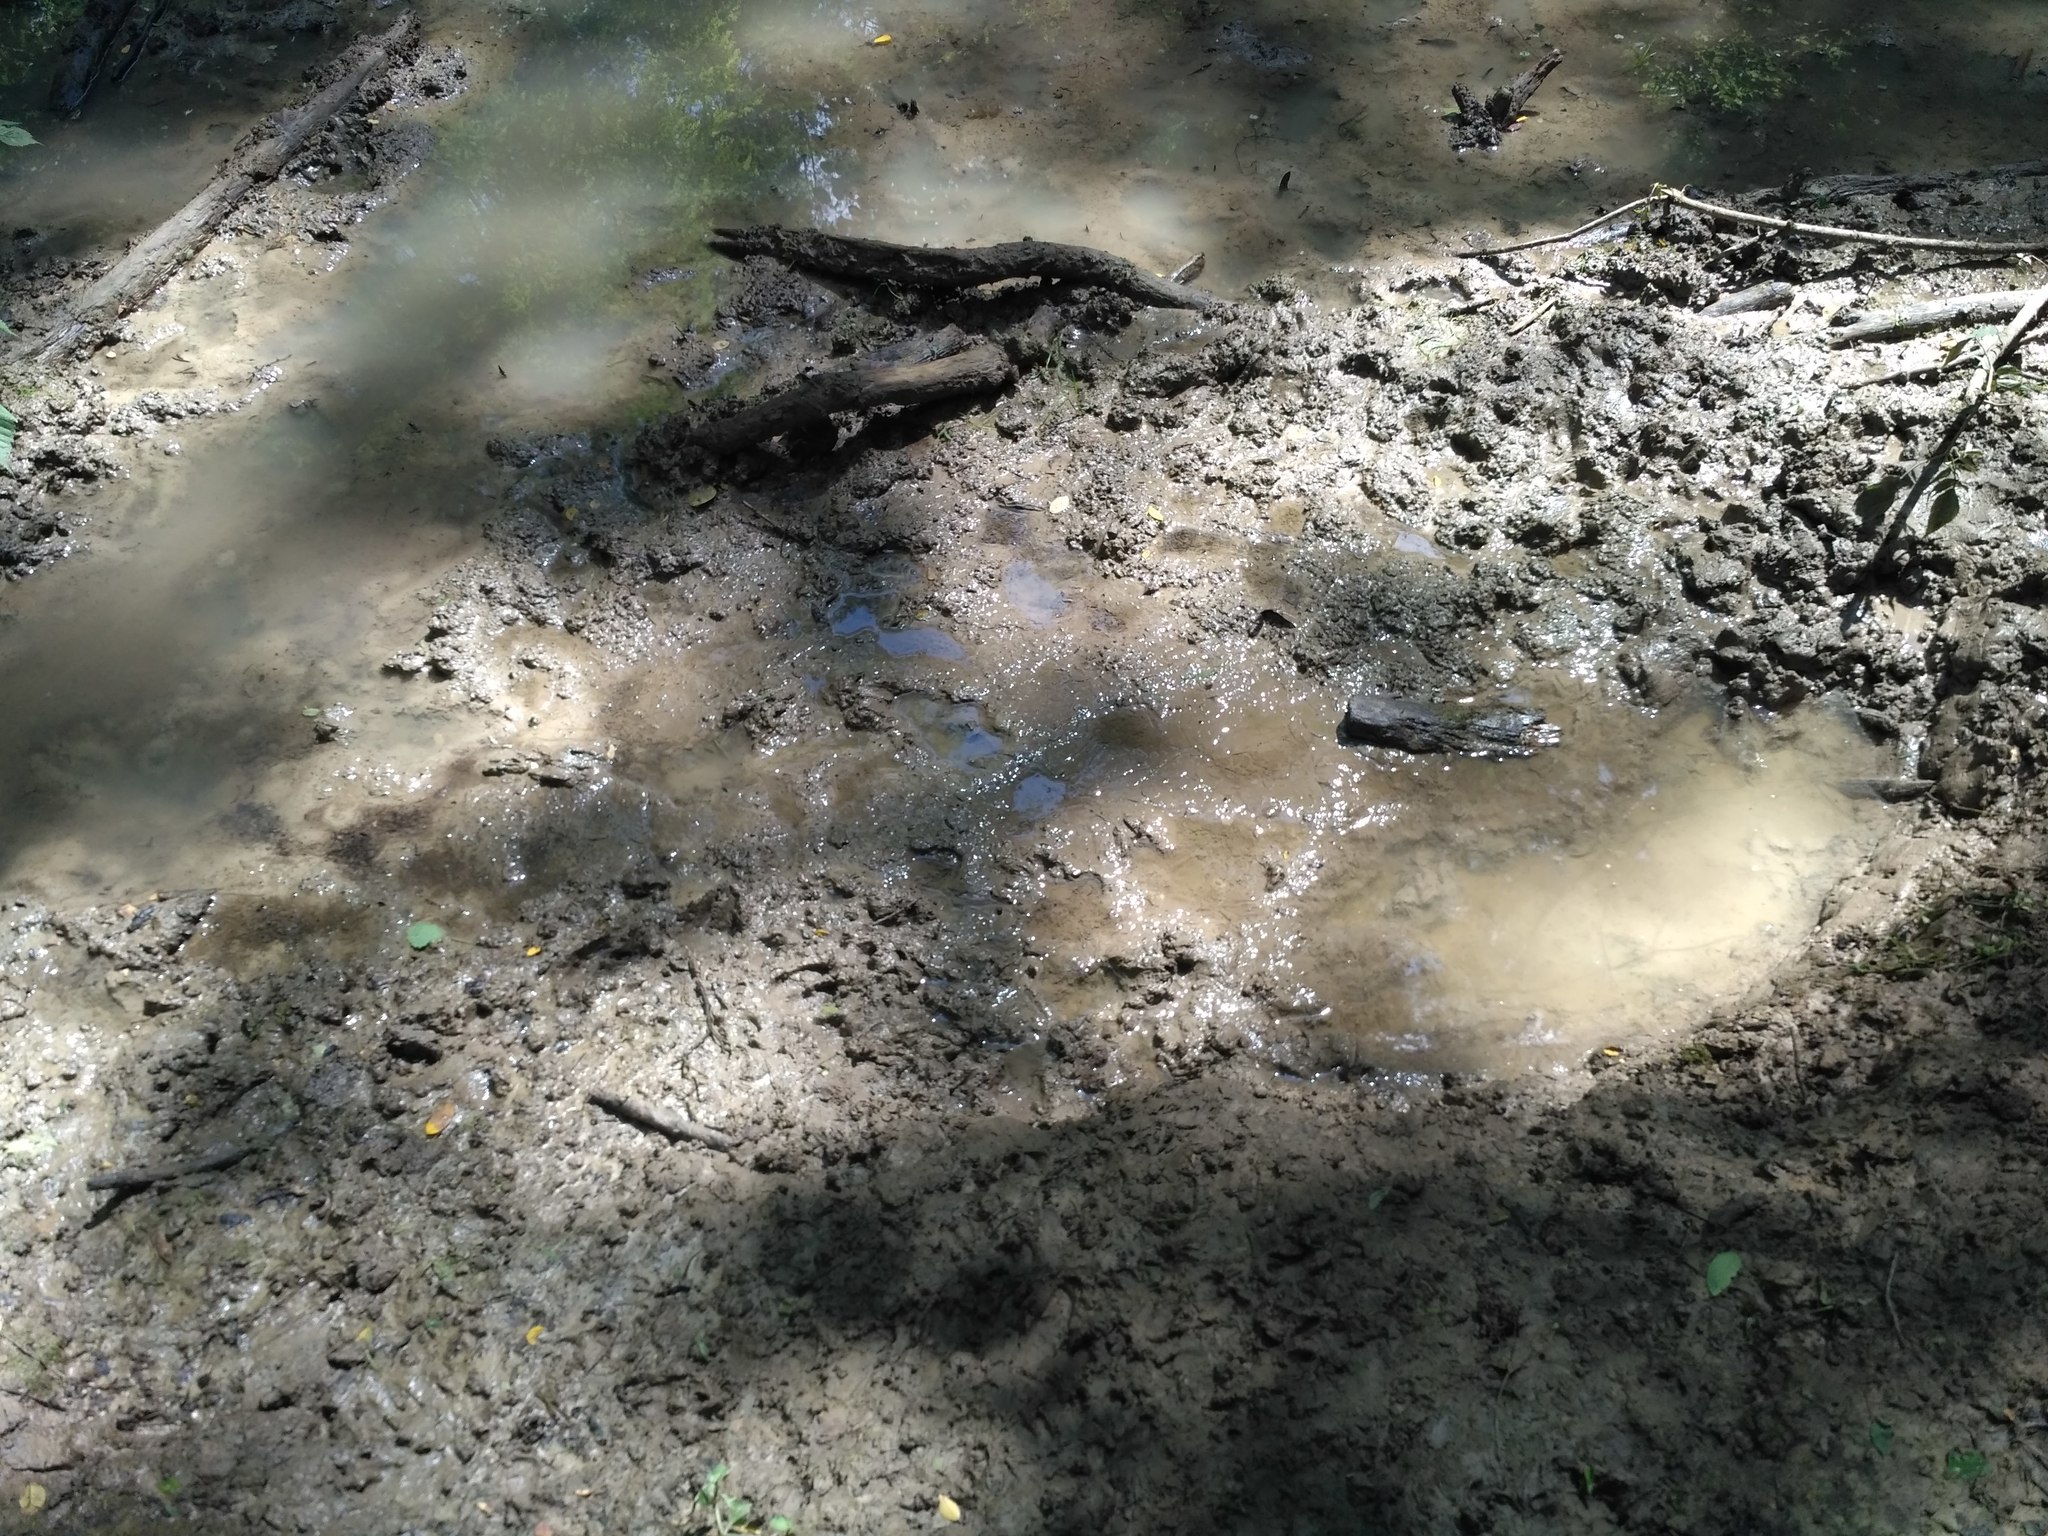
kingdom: Animalia
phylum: Chordata
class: Mammalia
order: Artiodactyla
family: Suidae
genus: Sus
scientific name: Sus scrofa
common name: Wild boar
